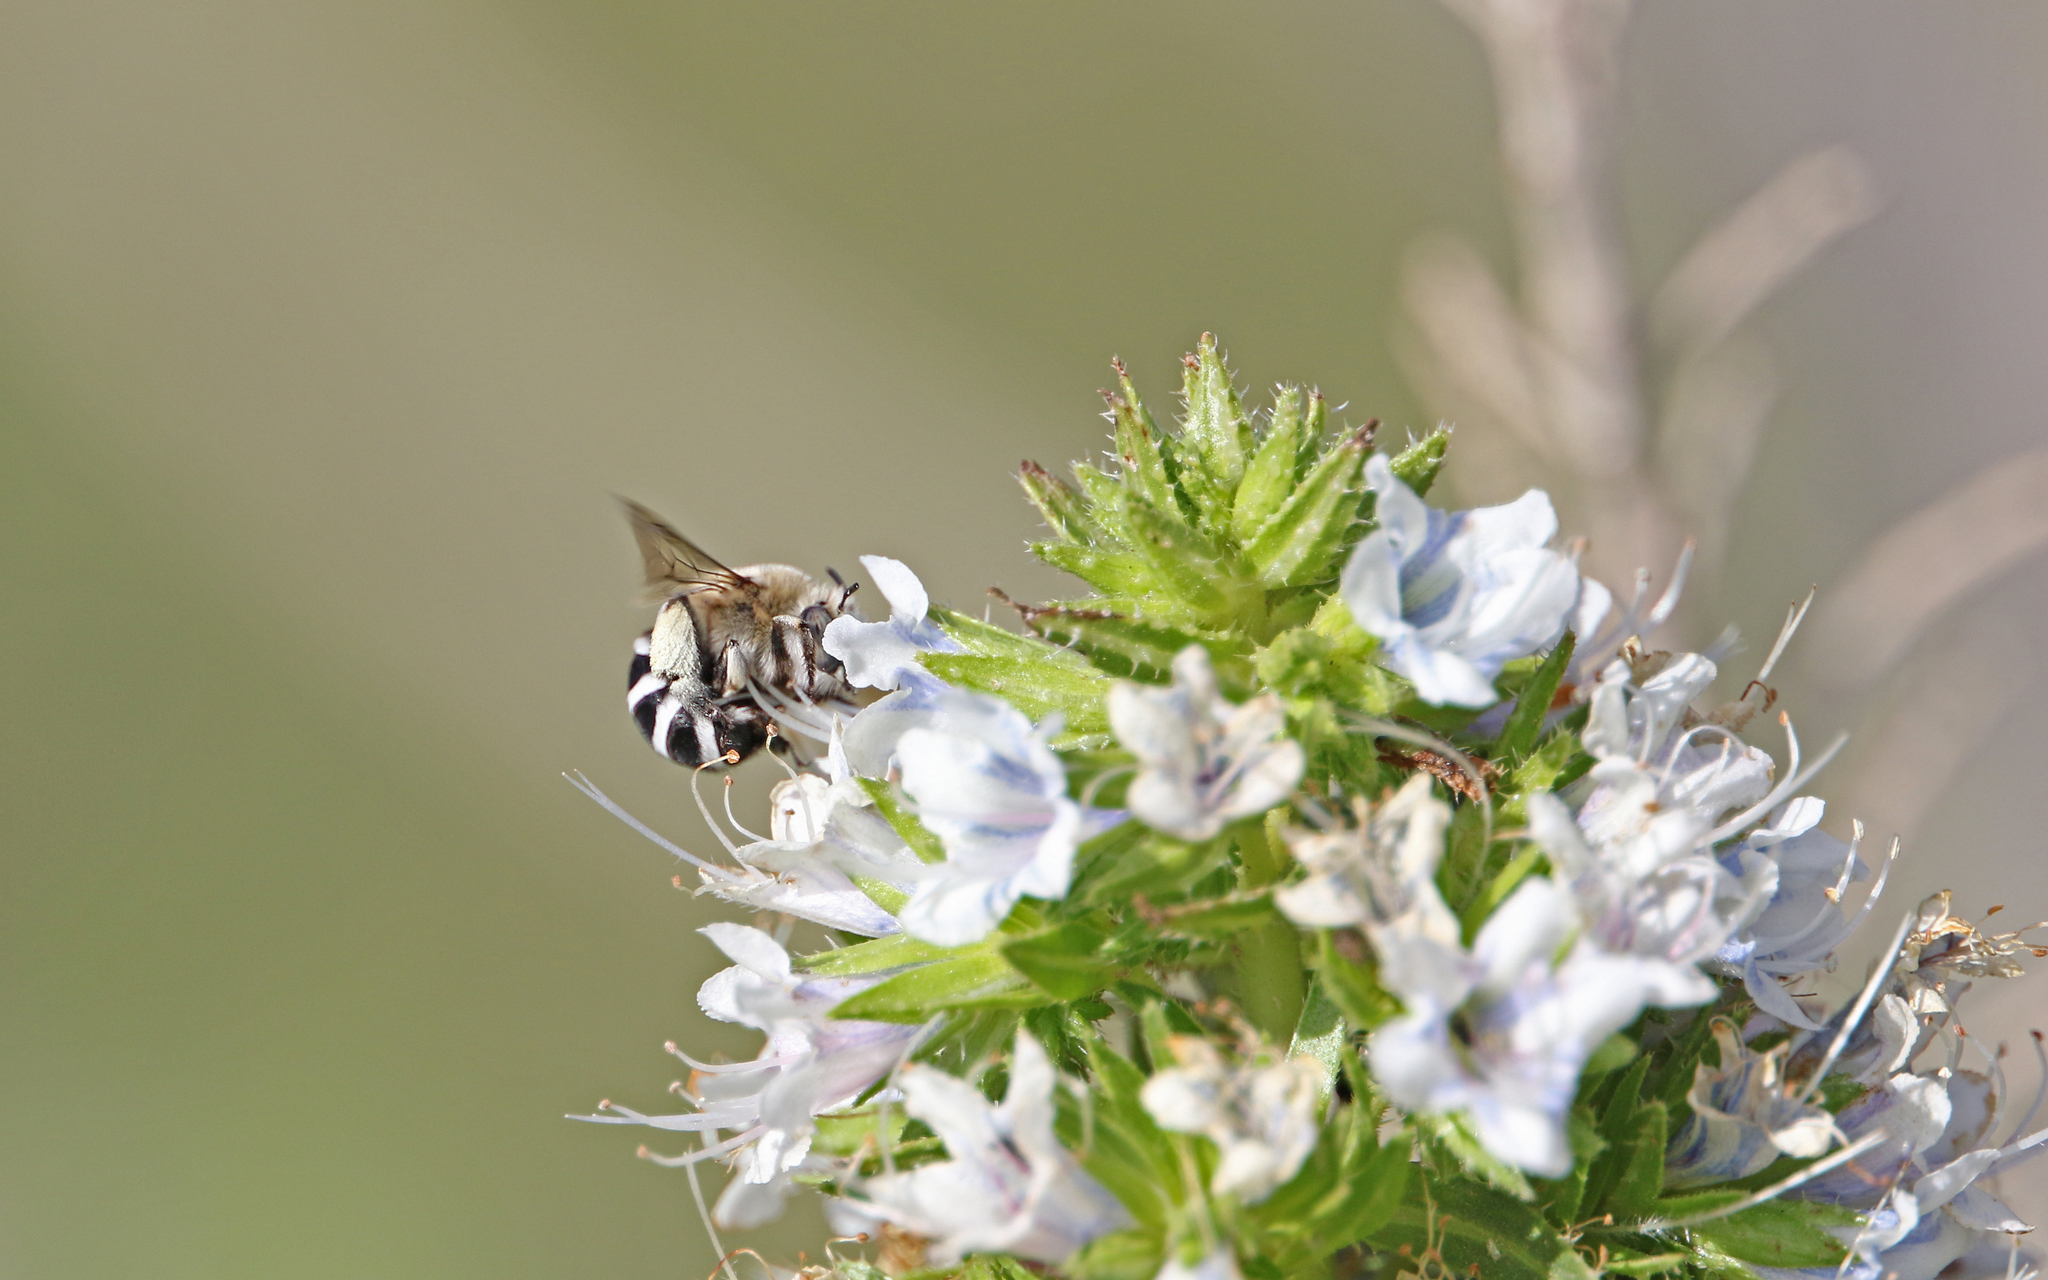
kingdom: Animalia
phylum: Arthropoda
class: Insecta
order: Hymenoptera
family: Apidae
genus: Amegilla
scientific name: Amegilla quadrifasciata
